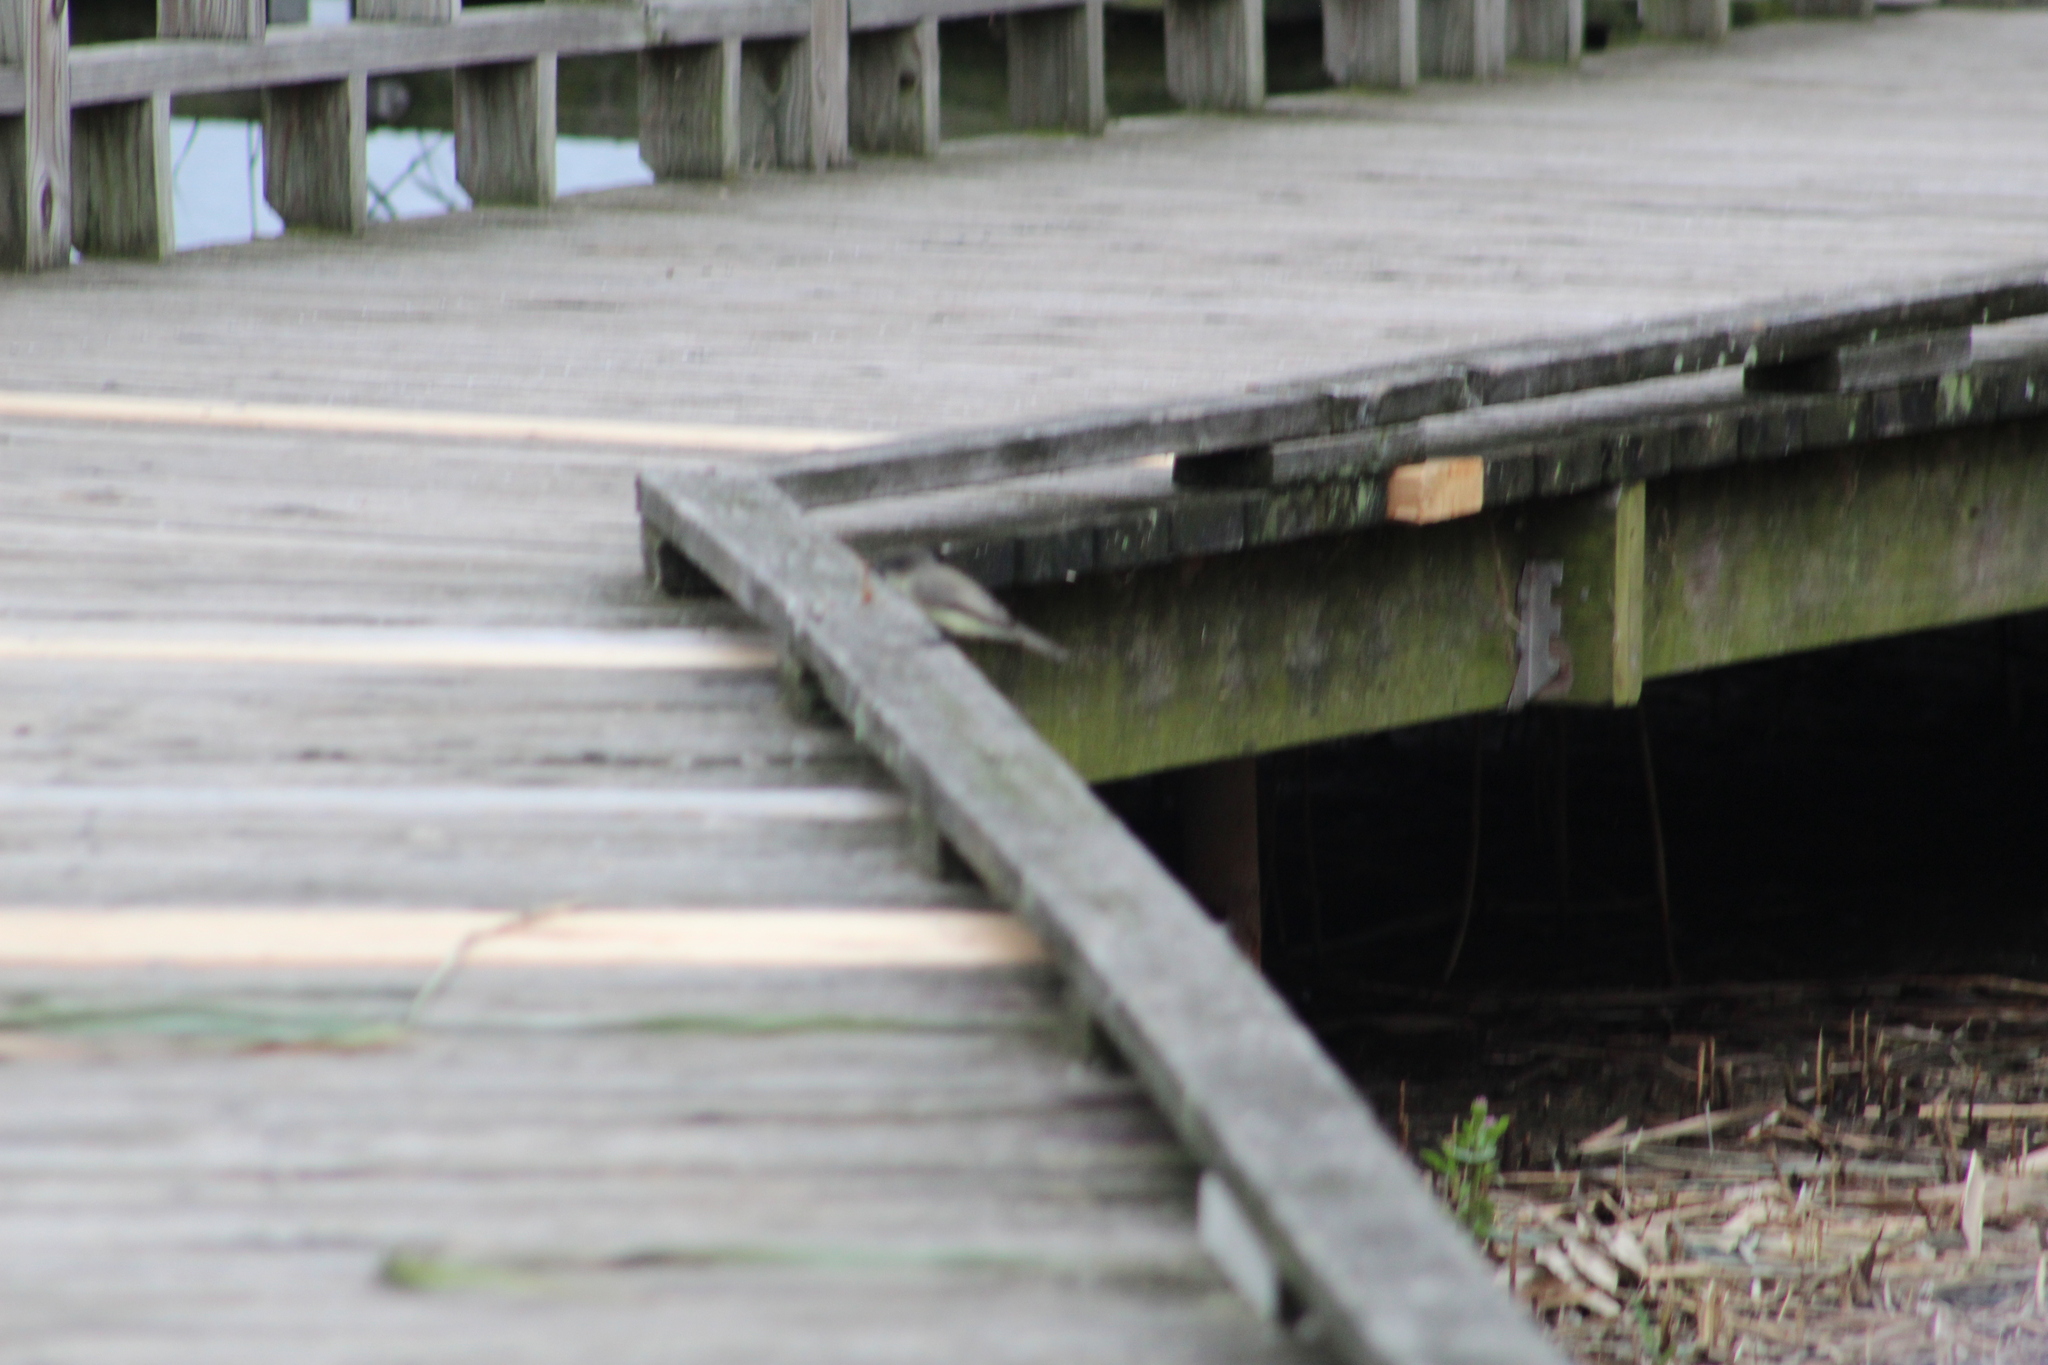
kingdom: Animalia
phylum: Chordata
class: Aves
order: Passeriformes
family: Tyrannidae
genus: Sayornis
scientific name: Sayornis phoebe
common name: Eastern phoebe
